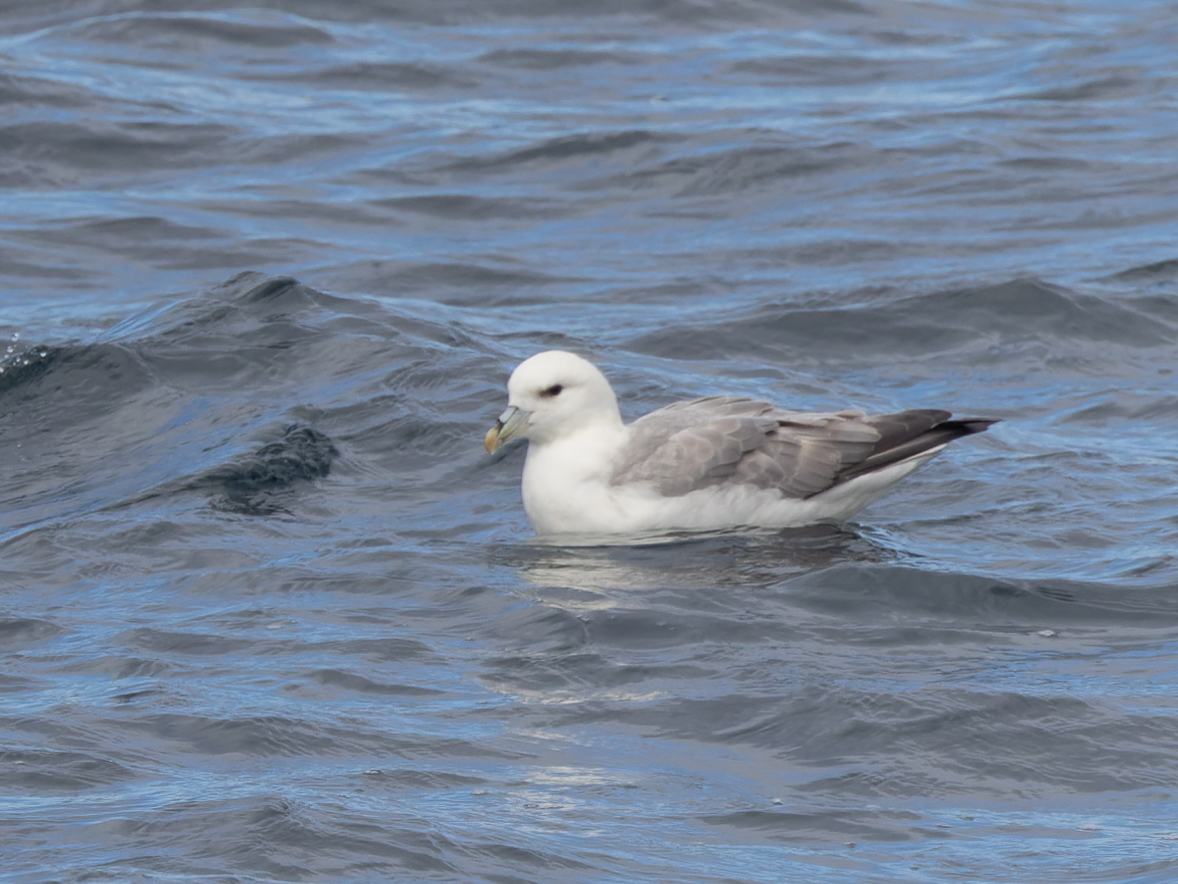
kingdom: Animalia
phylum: Chordata
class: Aves
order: Procellariiformes
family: Procellariidae
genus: Fulmarus
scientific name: Fulmarus glacialis
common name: Northern fulmar
